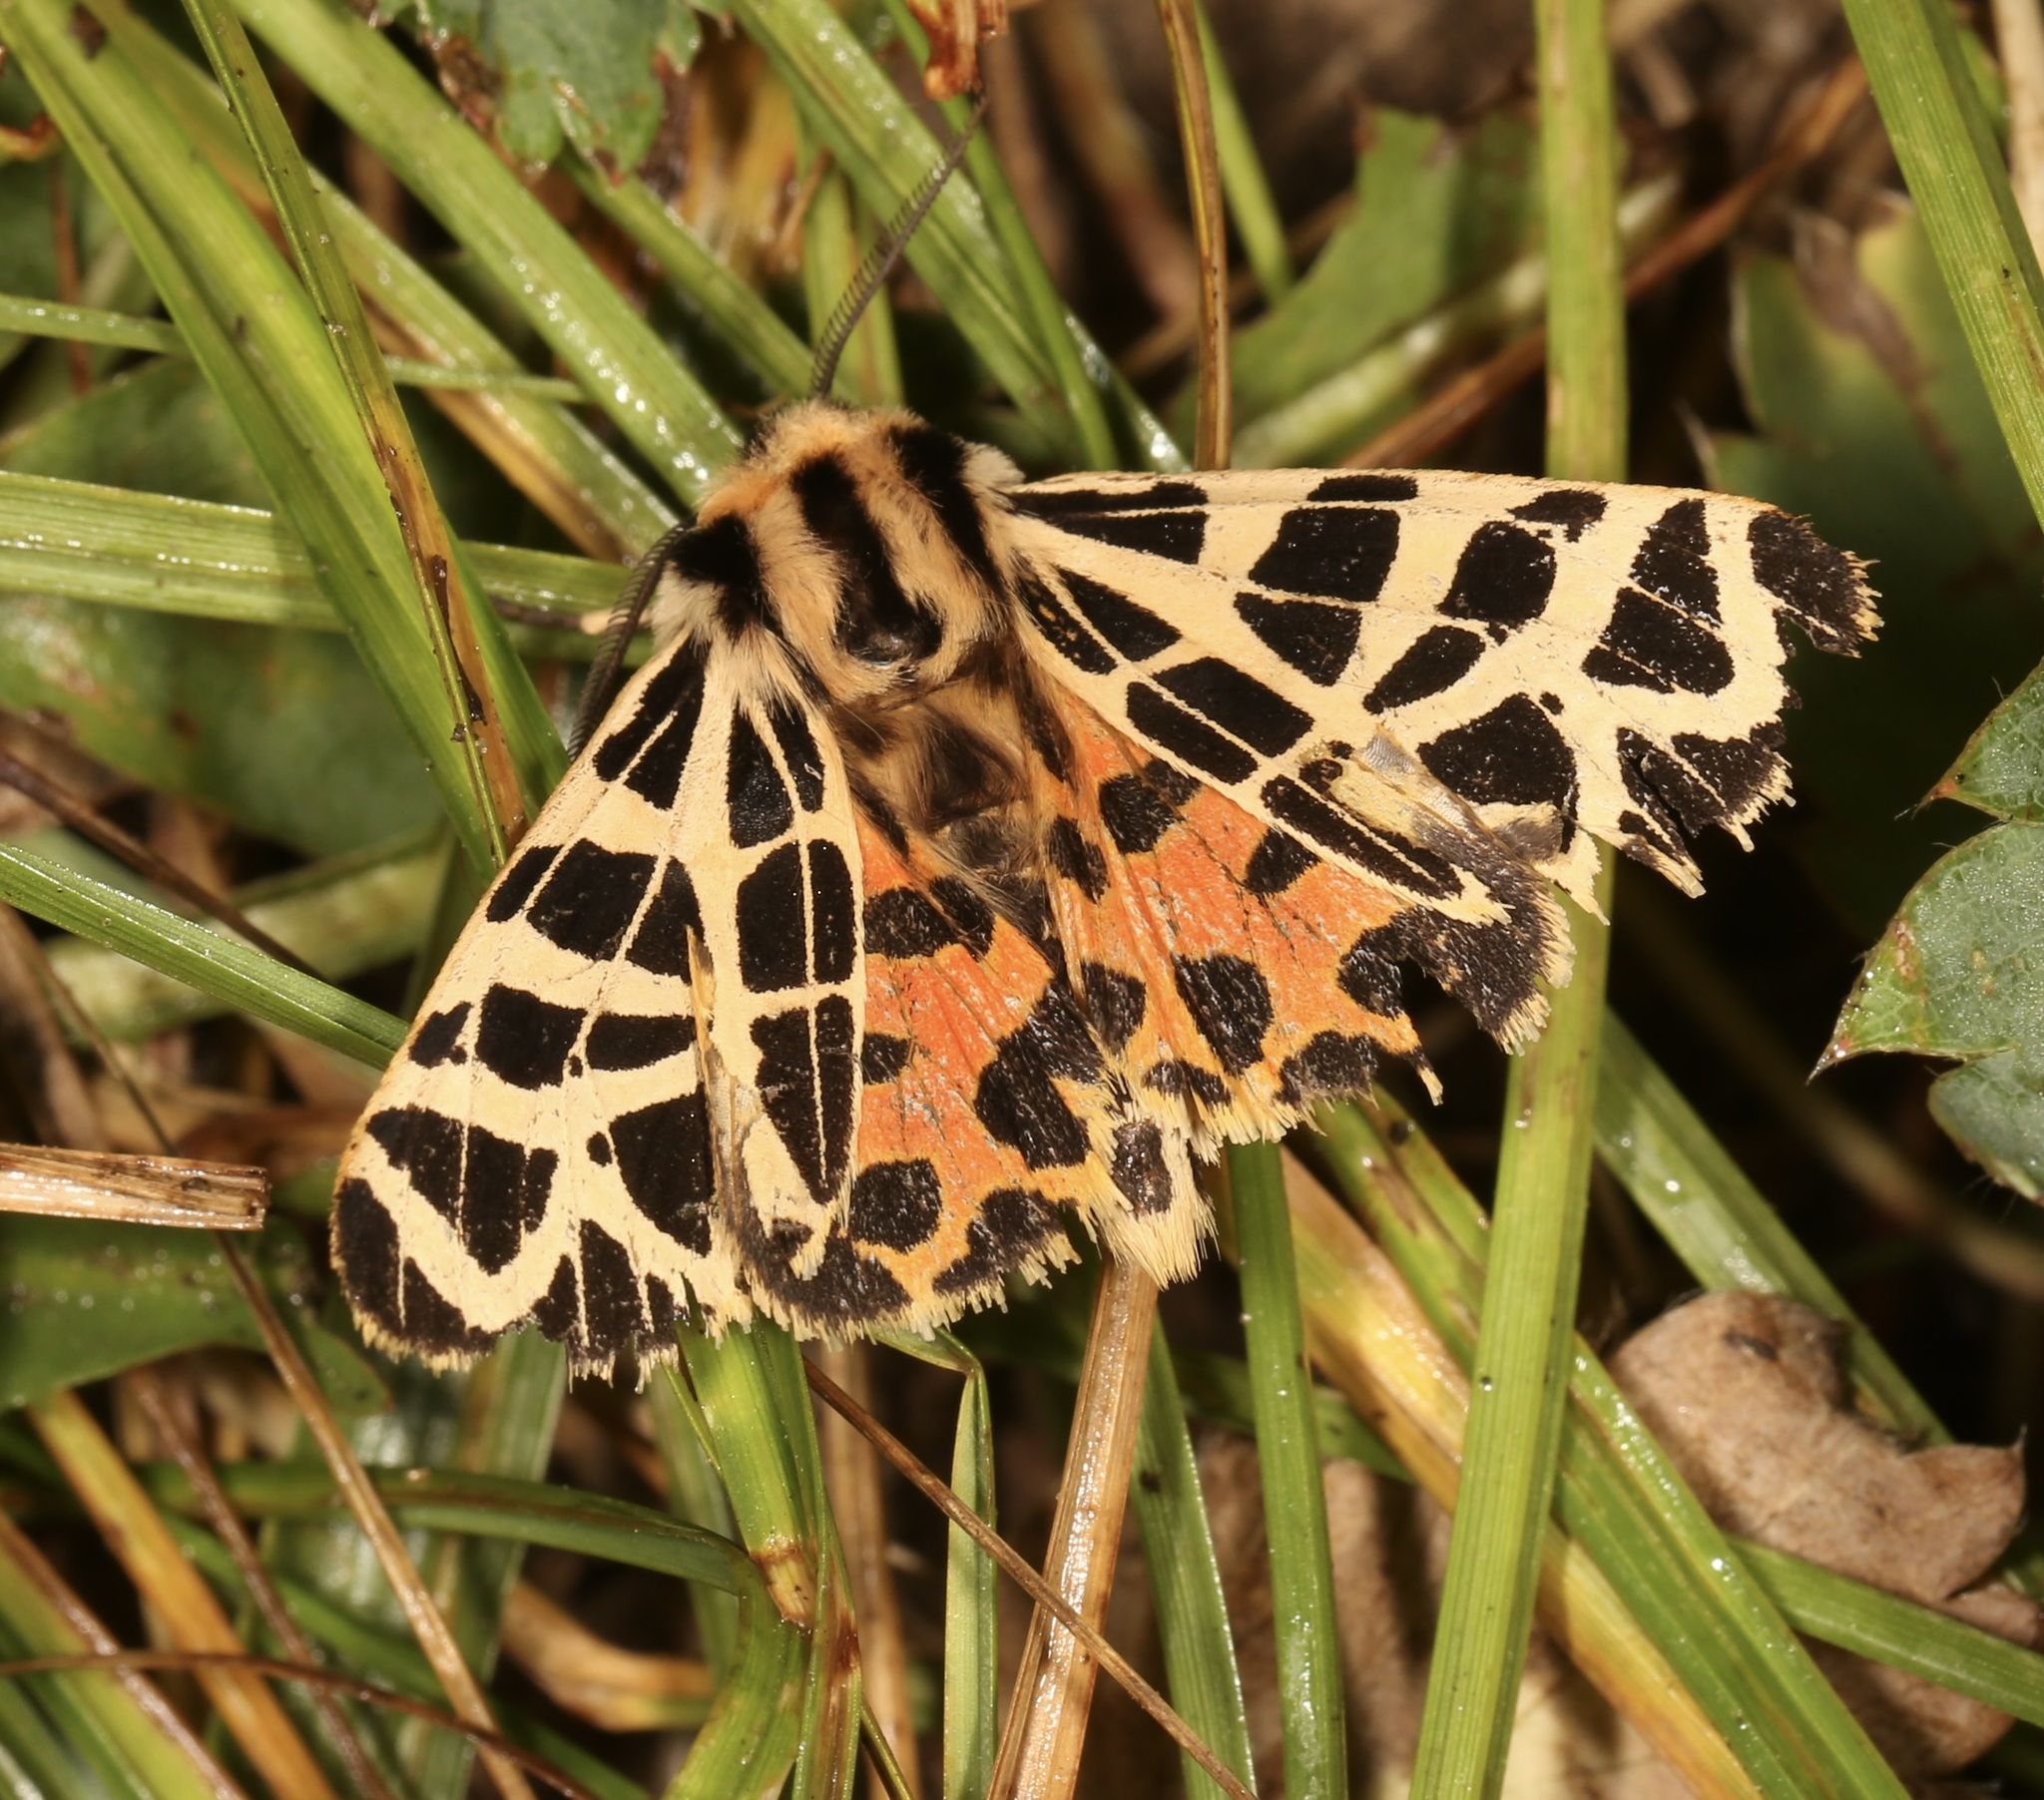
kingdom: Animalia
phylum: Arthropoda
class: Insecta
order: Lepidoptera
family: Erebidae
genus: Apantesis
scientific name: Apantesis
